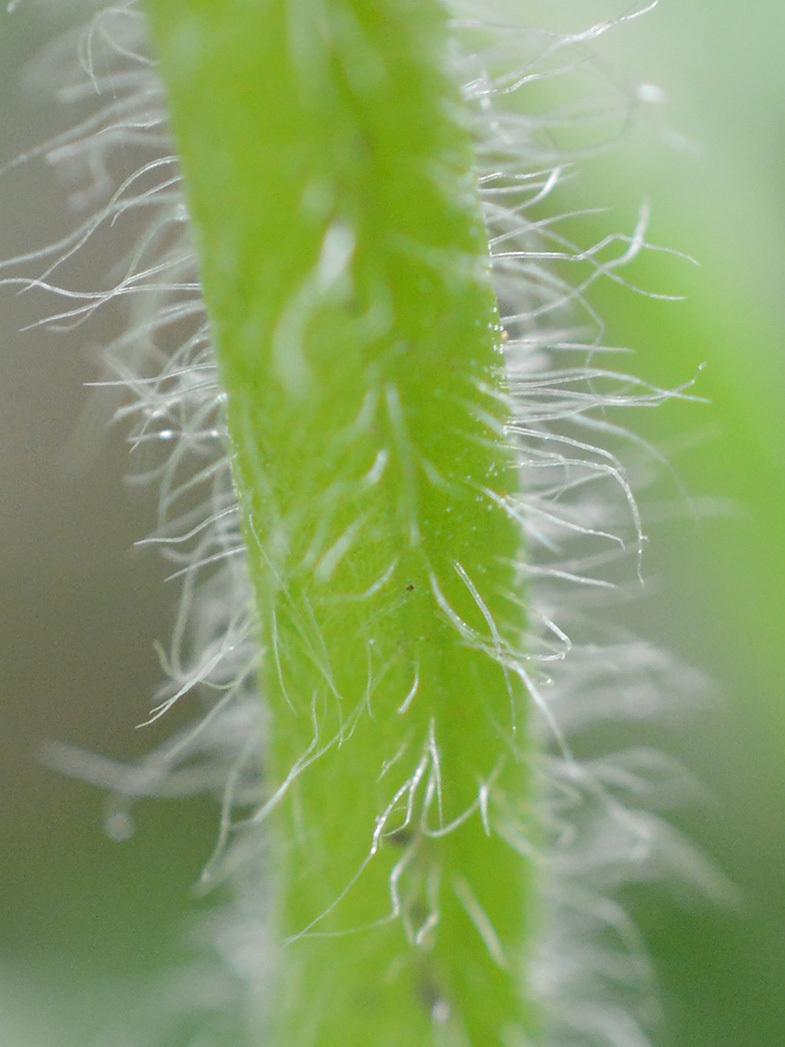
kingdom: Plantae
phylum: Tracheophyta
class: Magnoliopsida
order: Lamiales
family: Lamiaceae
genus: Ajuga
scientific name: Ajuga genevensis
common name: Blue bugle
